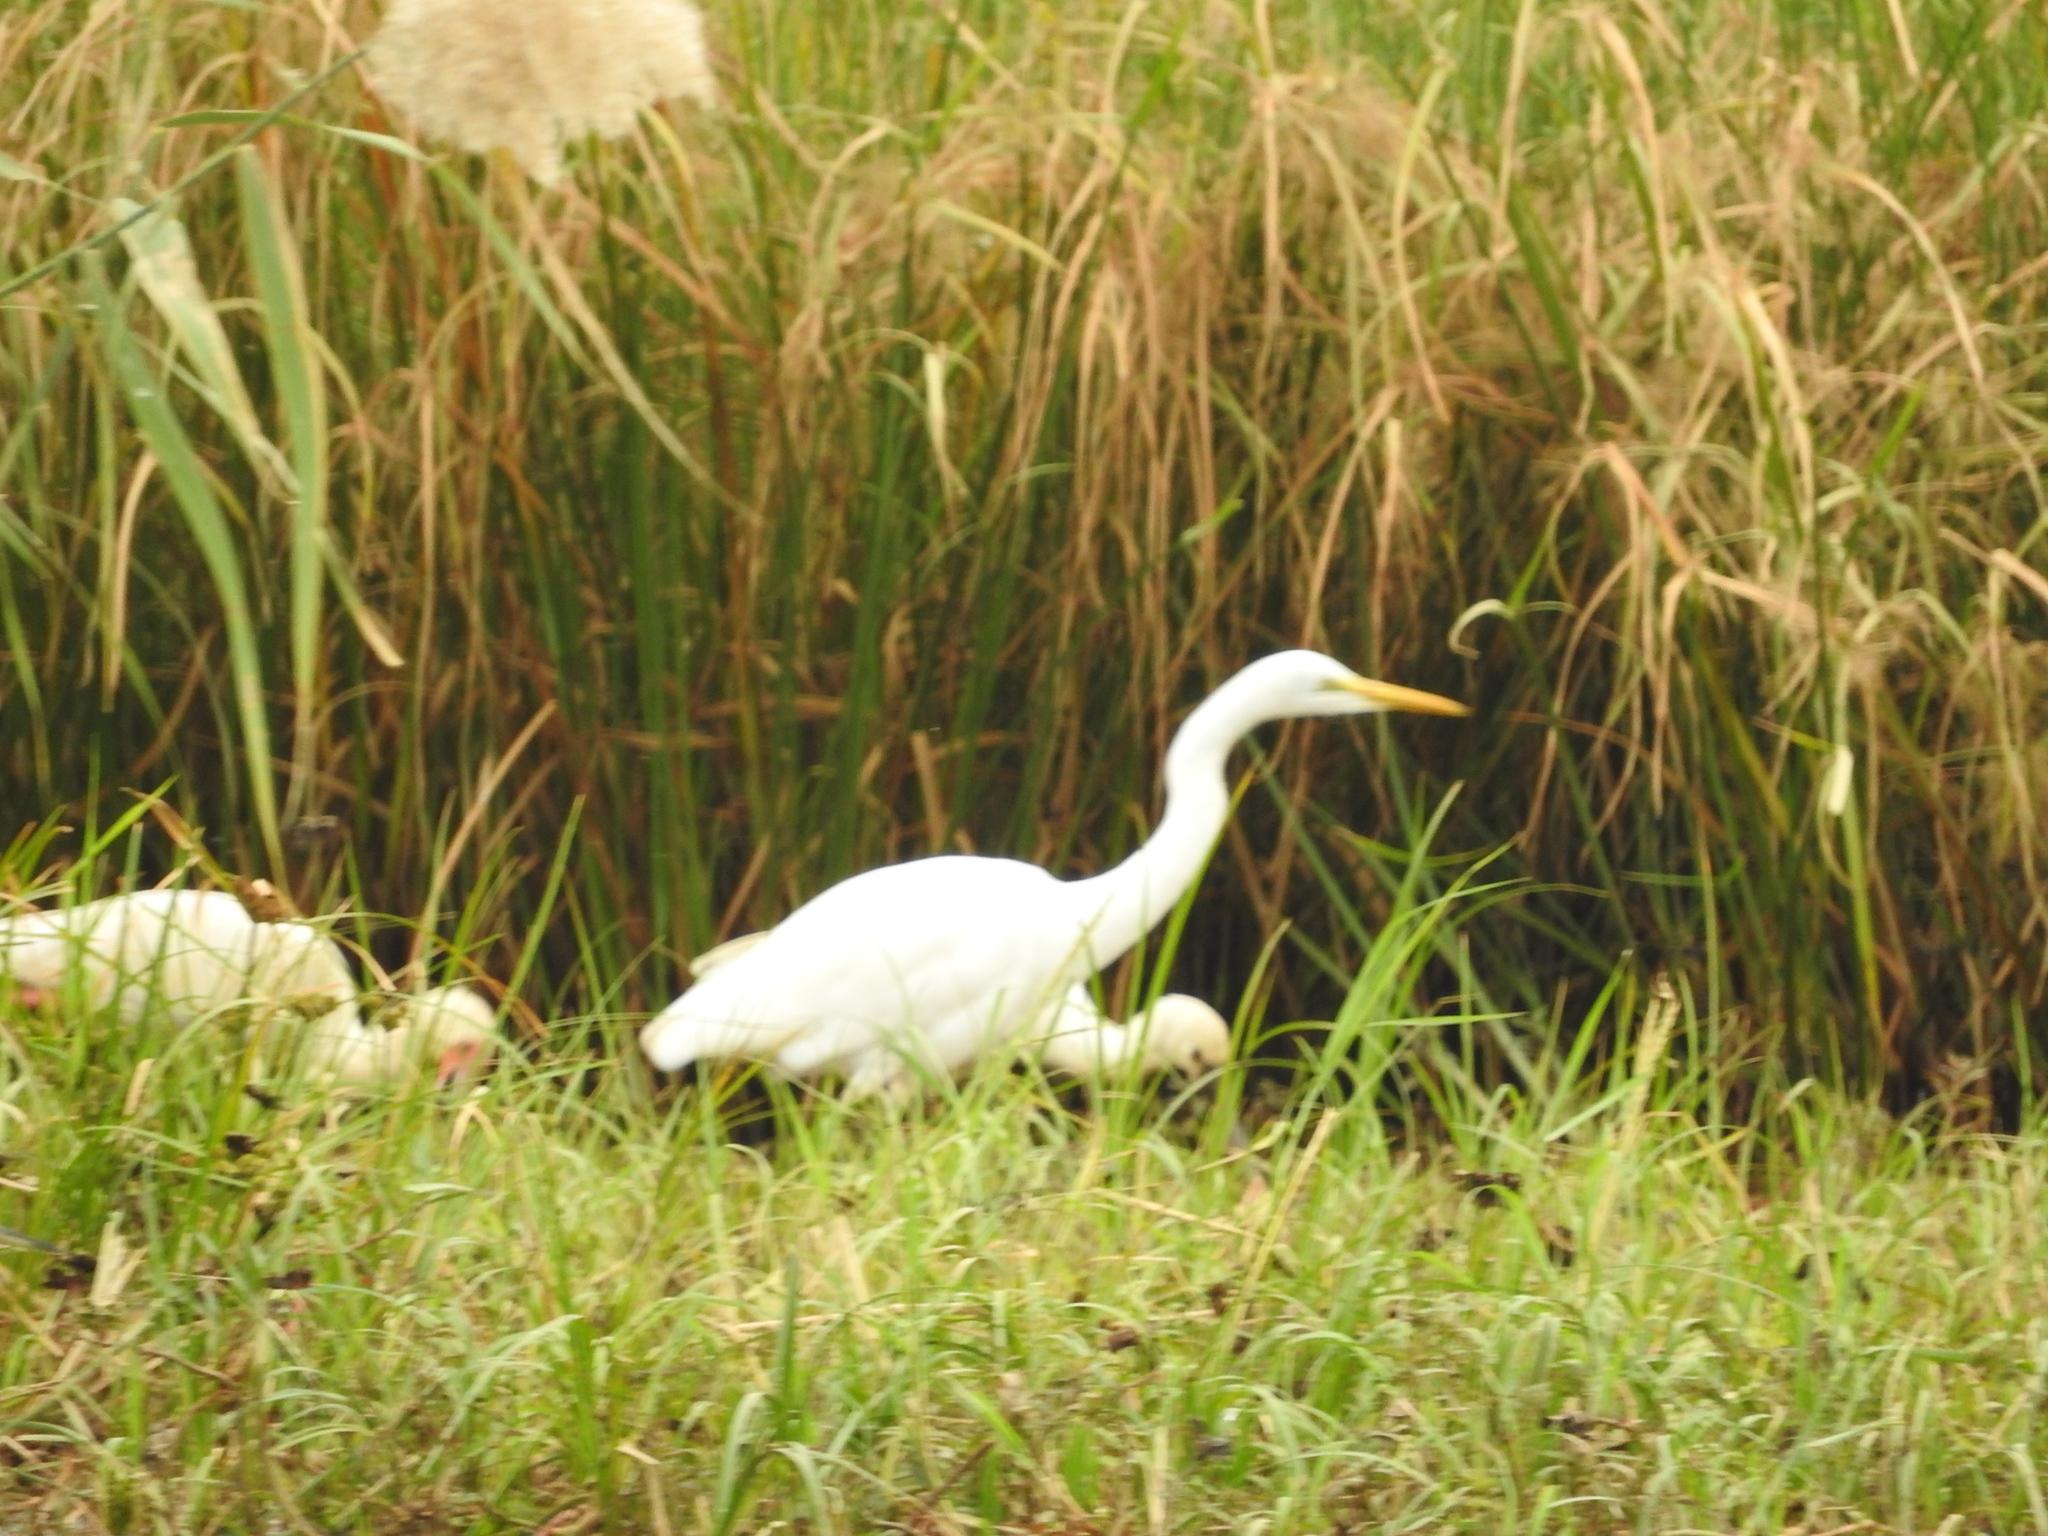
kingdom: Animalia
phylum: Chordata
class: Aves
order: Pelecaniformes
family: Ardeidae
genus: Ardea
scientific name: Ardea alba
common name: Great egret
